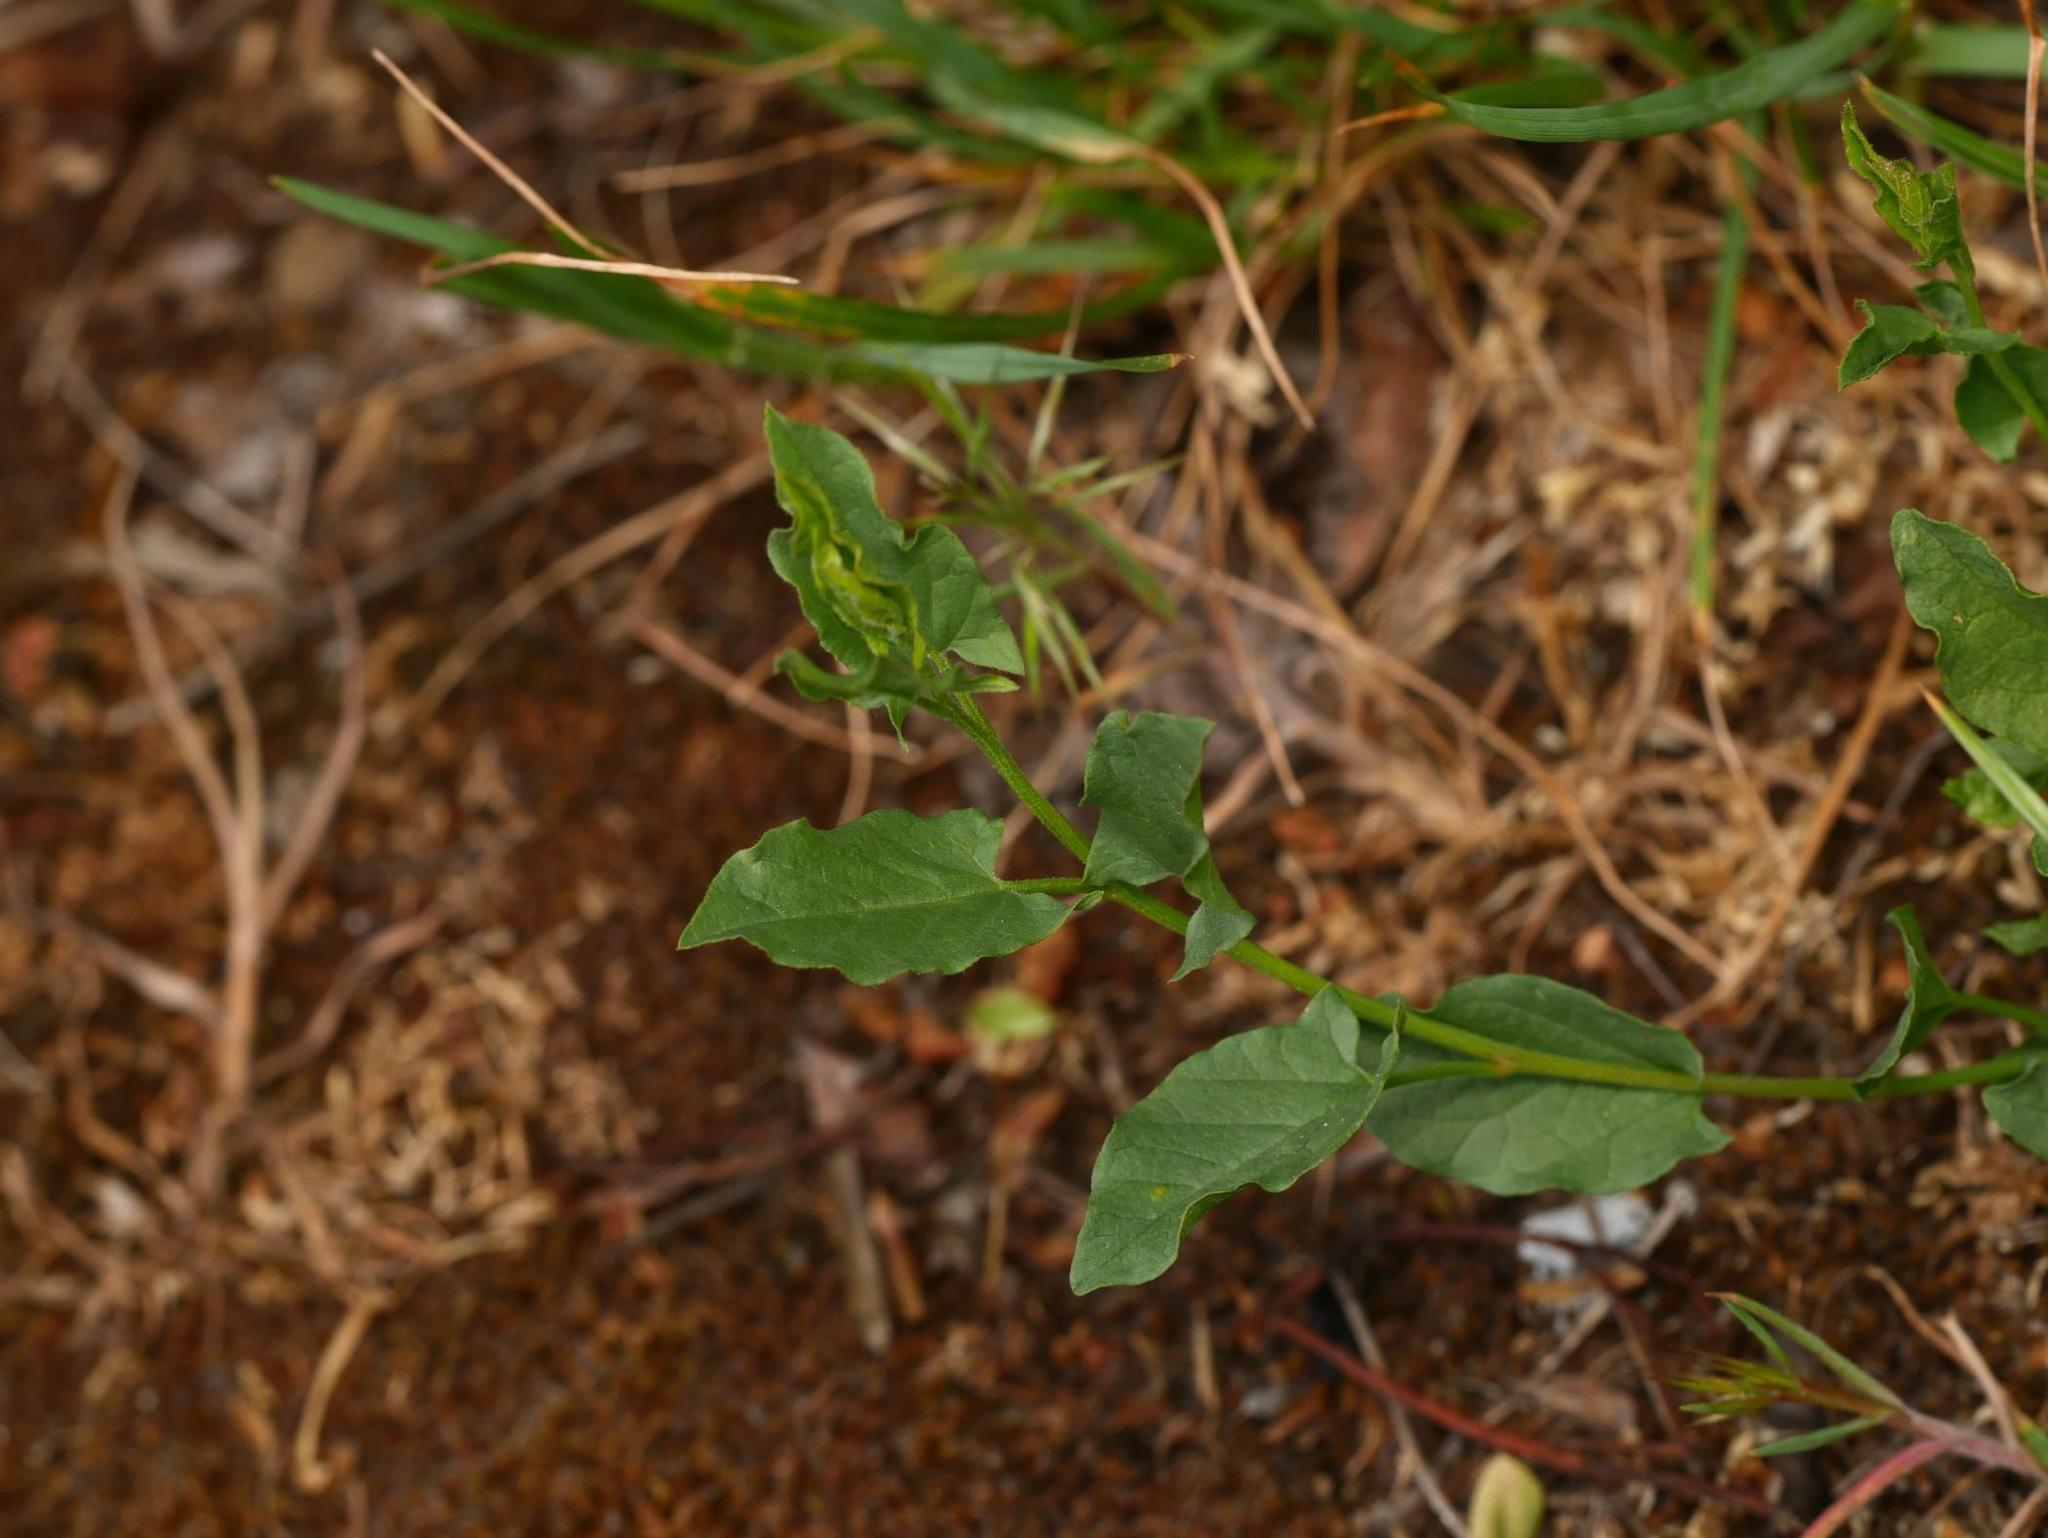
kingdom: Plantae
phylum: Tracheophyta
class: Magnoliopsida
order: Solanales
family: Convolvulaceae
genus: Convolvulus
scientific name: Convolvulus arvensis
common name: Field bindweed
